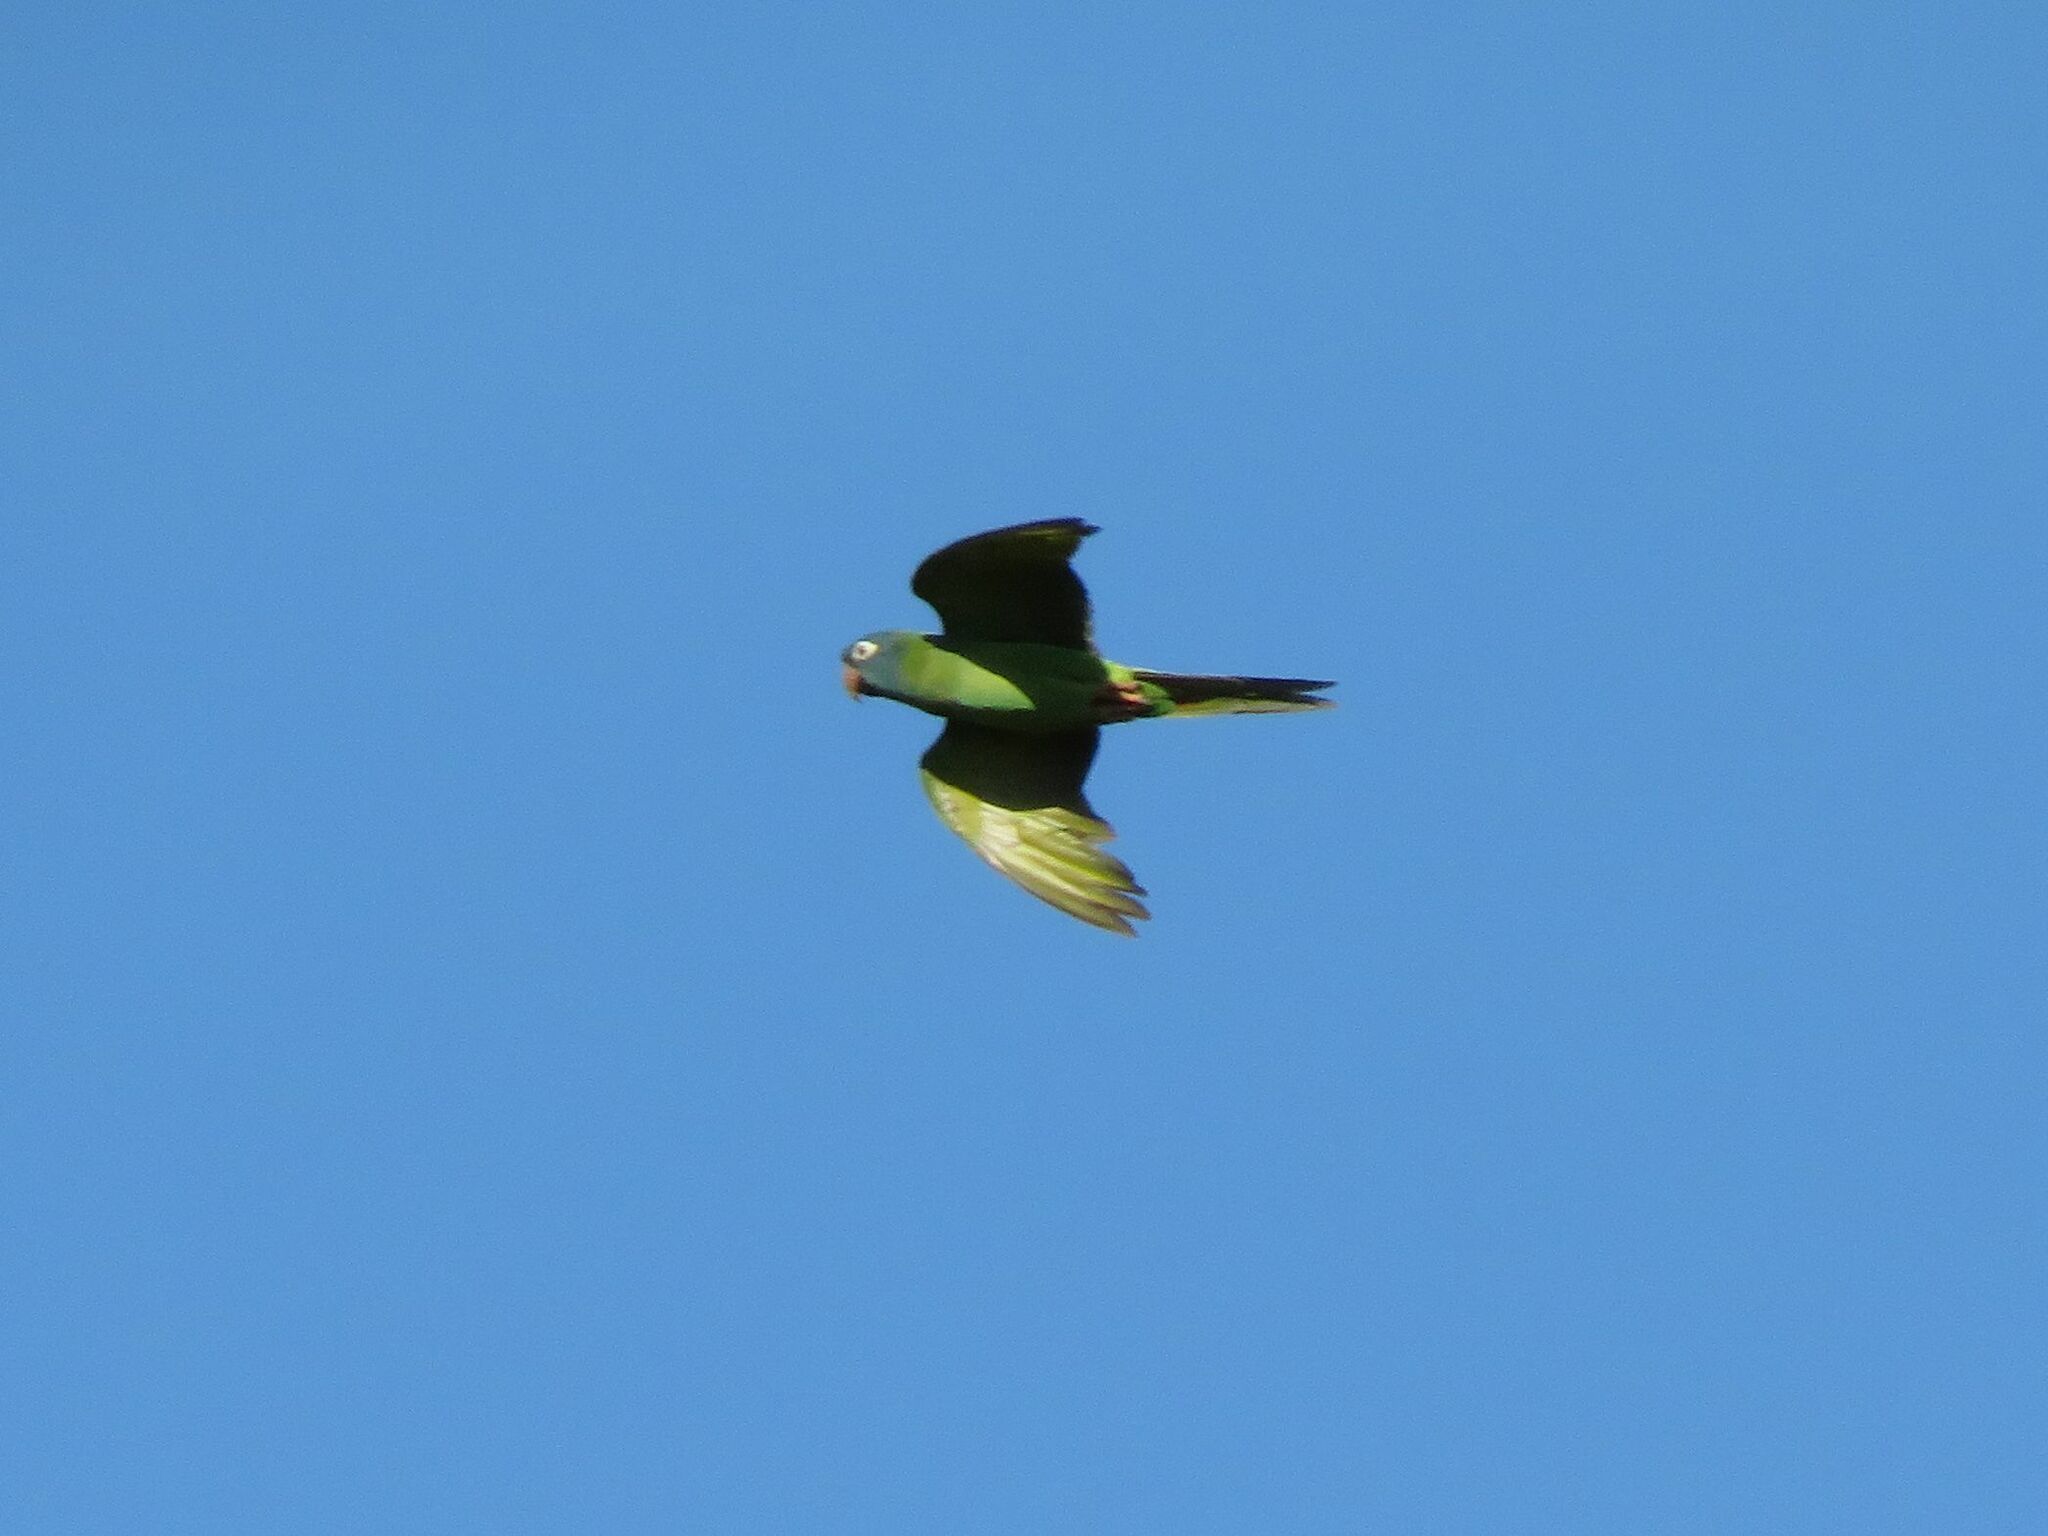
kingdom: Animalia
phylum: Chordata
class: Aves
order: Psittaciformes
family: Psittacidae
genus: Aratinga
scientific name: Aratinga acuticaudata
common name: Blue-crowned parakeet
